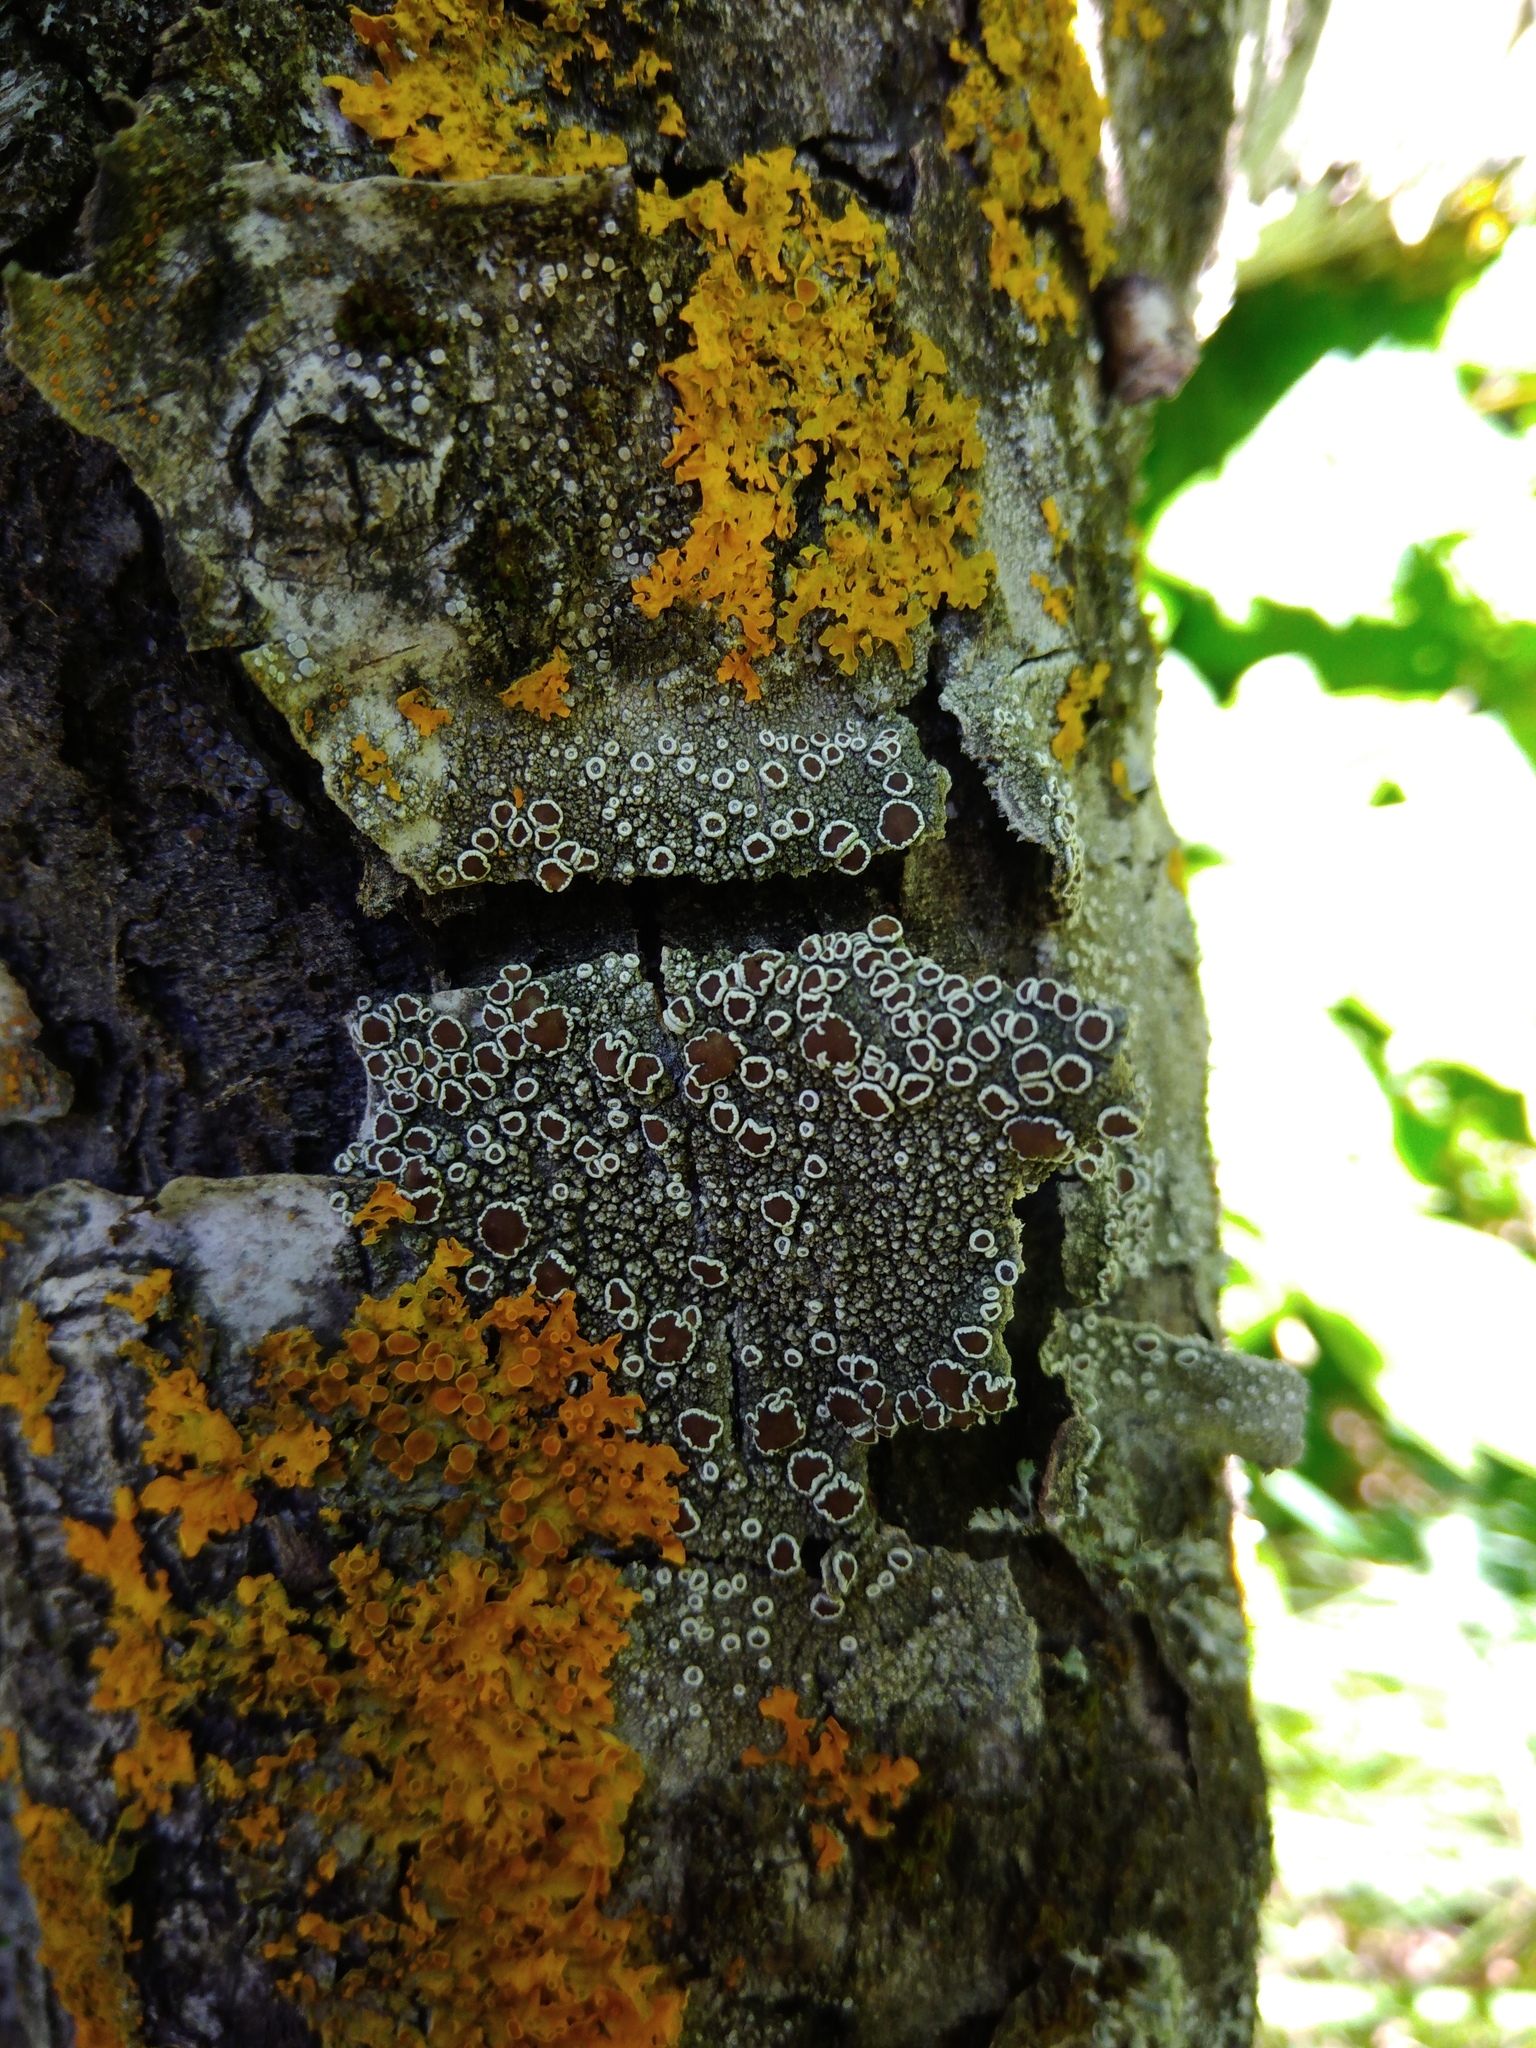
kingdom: Fungi
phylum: Ascomycota
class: Lecanoromycetes
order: Lecanorales
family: Lecanoraceae
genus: Lecanora
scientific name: Lecanora albella
